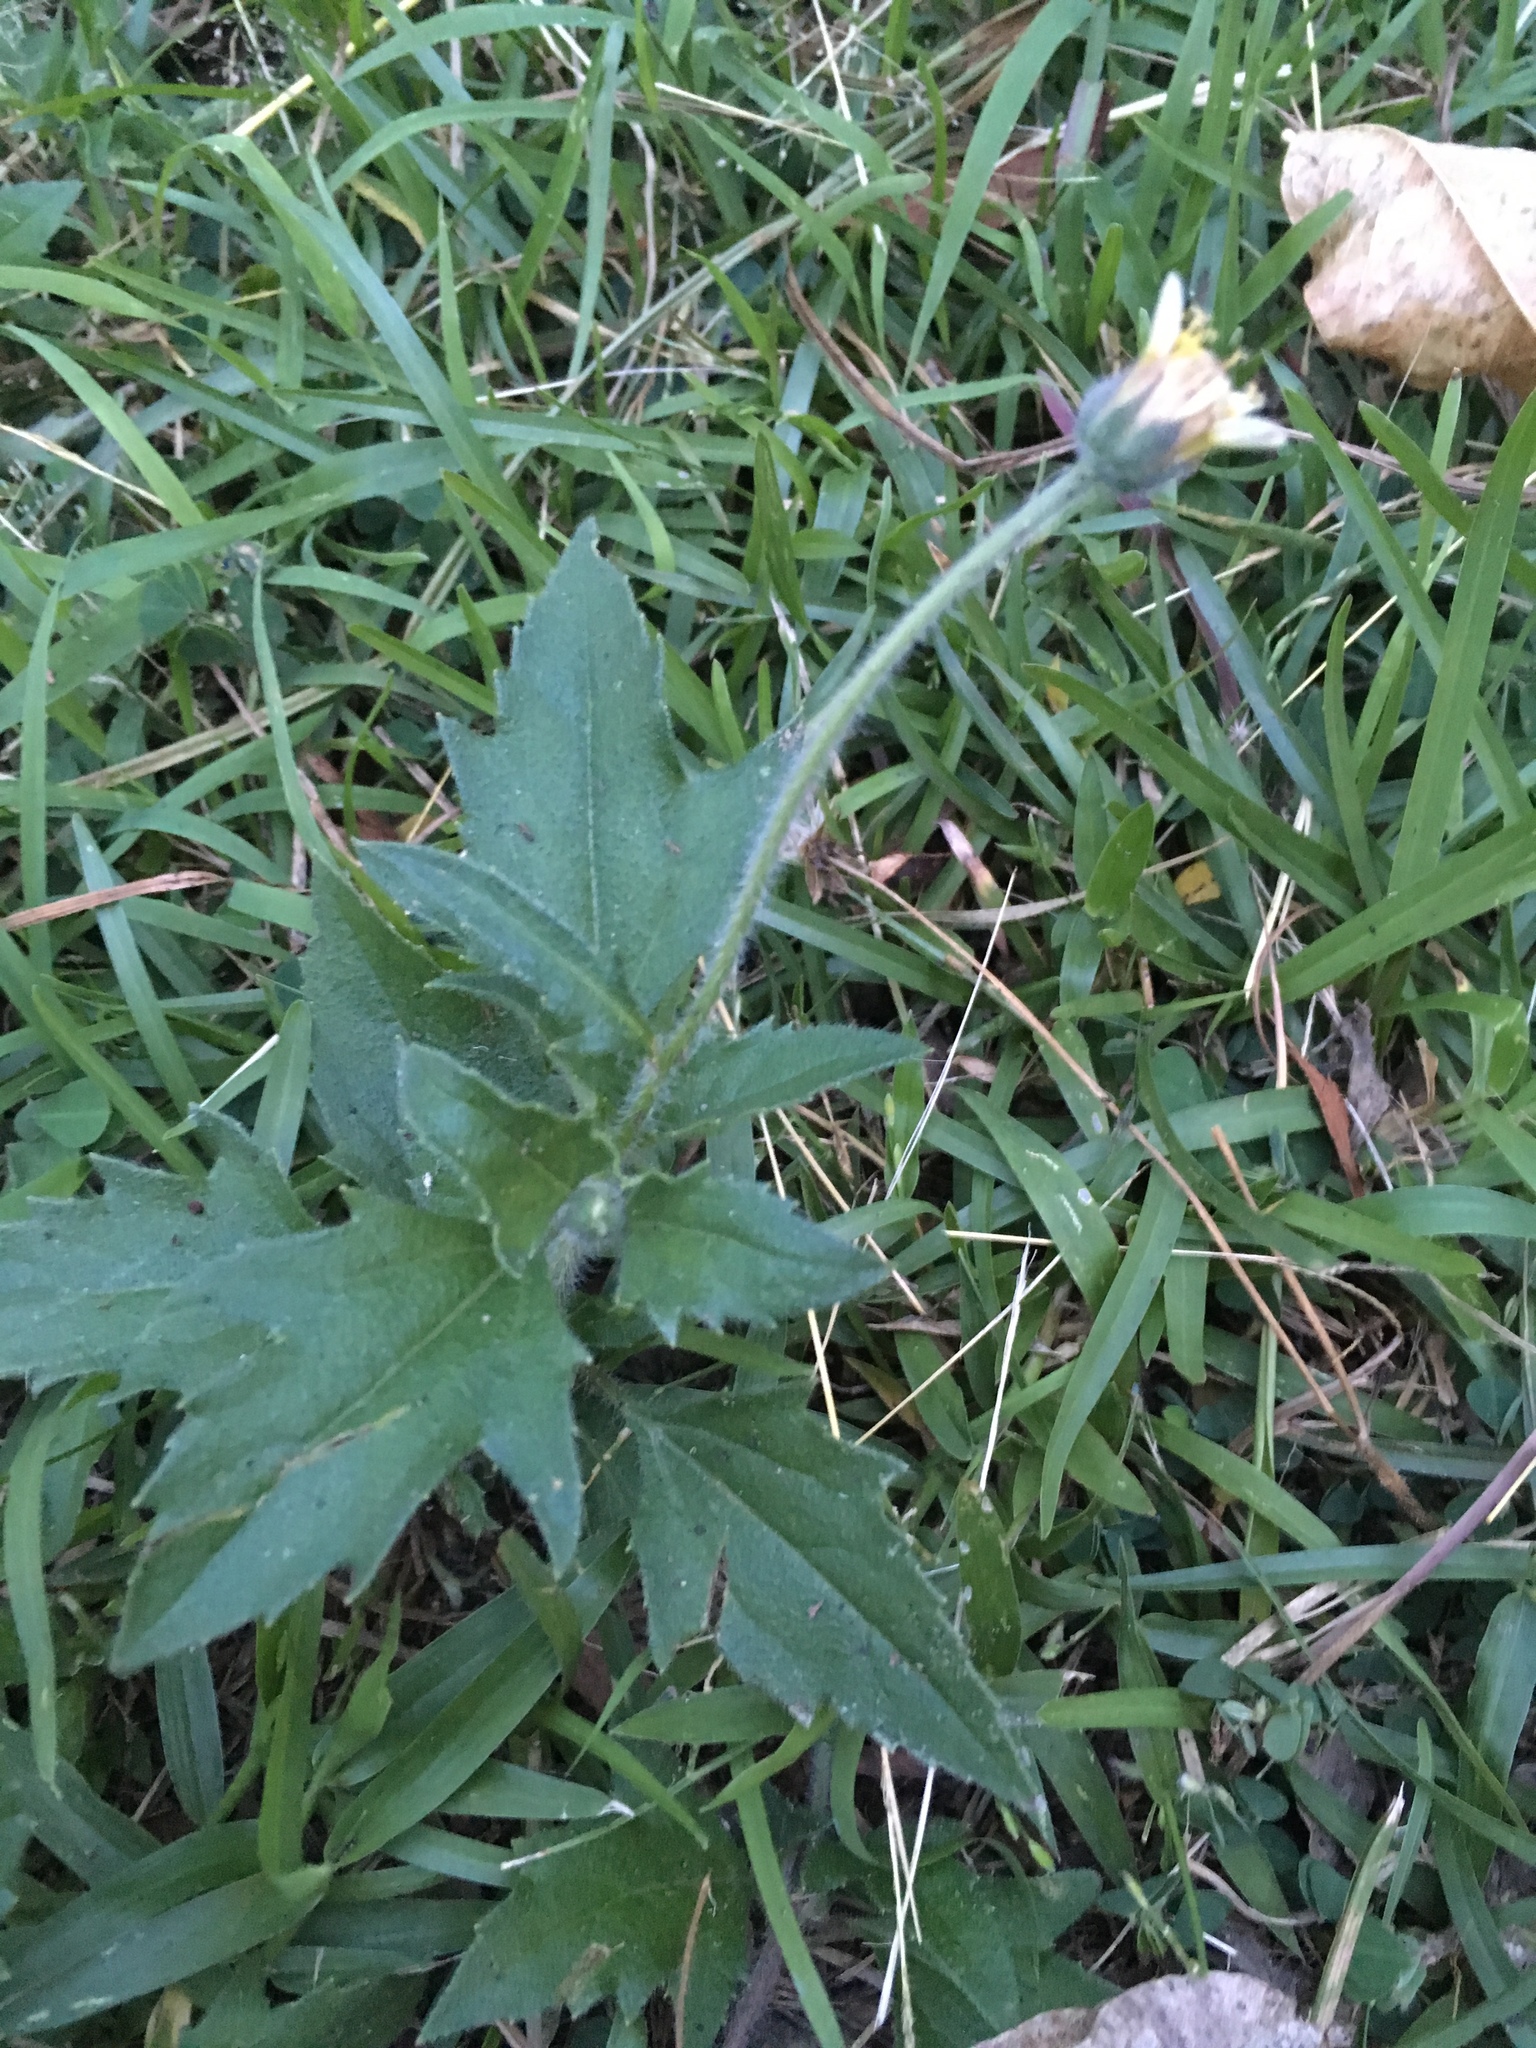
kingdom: Plantae
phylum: Tracheophyta
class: Magnoliopsida
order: Asterales
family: Asteraceae
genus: Tridax
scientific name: Tridax procumbens
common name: Coatbuttons
